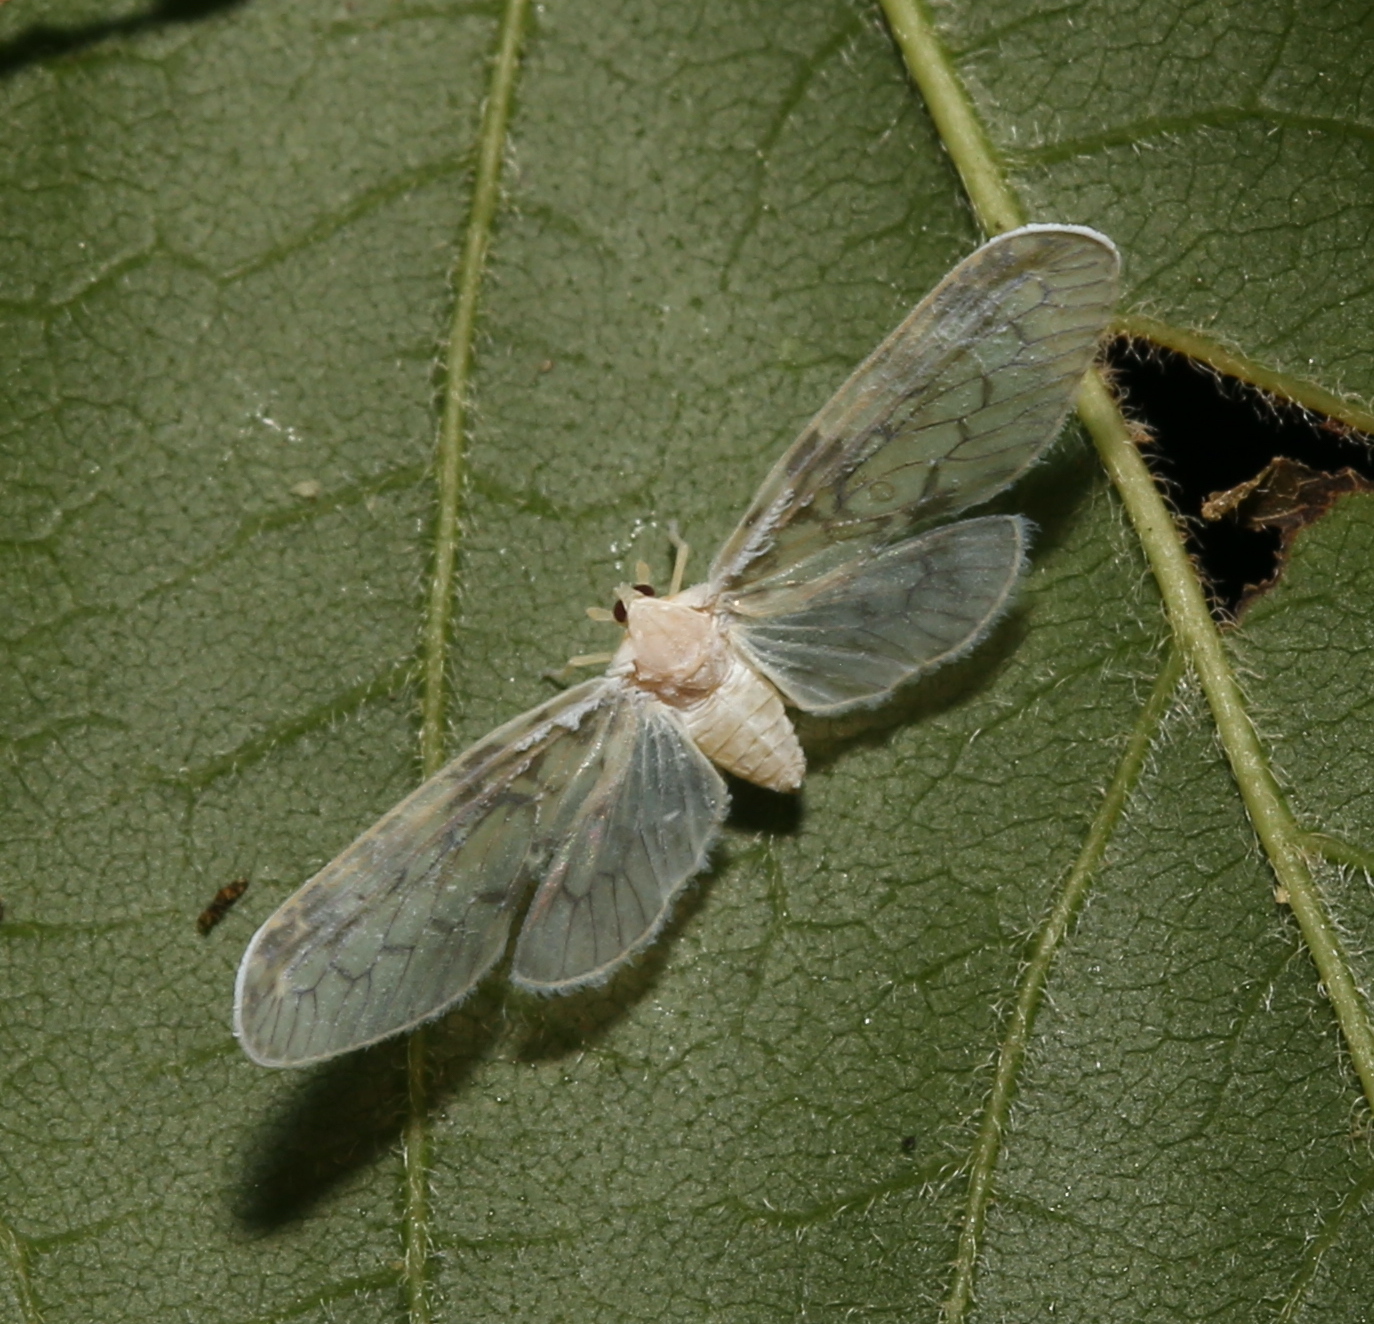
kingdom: Animalia
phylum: Arthropoda
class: Insecta
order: Hemiptera
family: Derbidae
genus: Paramysidia
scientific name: Paramysidia mississippiensis
